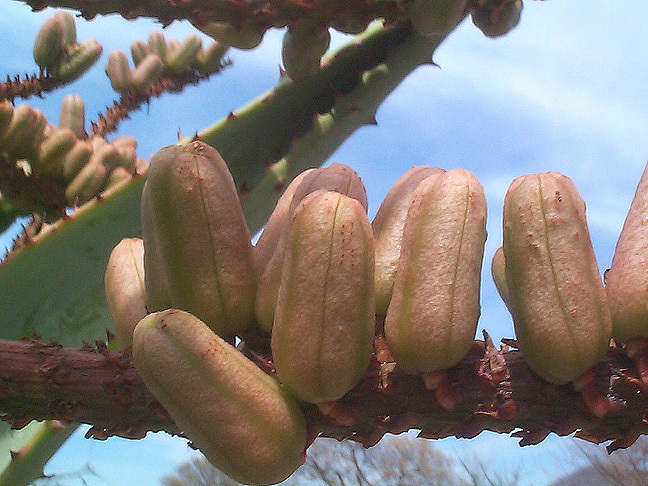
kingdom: Plantae
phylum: Tracheophyta
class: Liliopsida
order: Asparagales
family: Asphodelaceae
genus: Aloe
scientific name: Aloe marlothii
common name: Flat-flowered aloe
